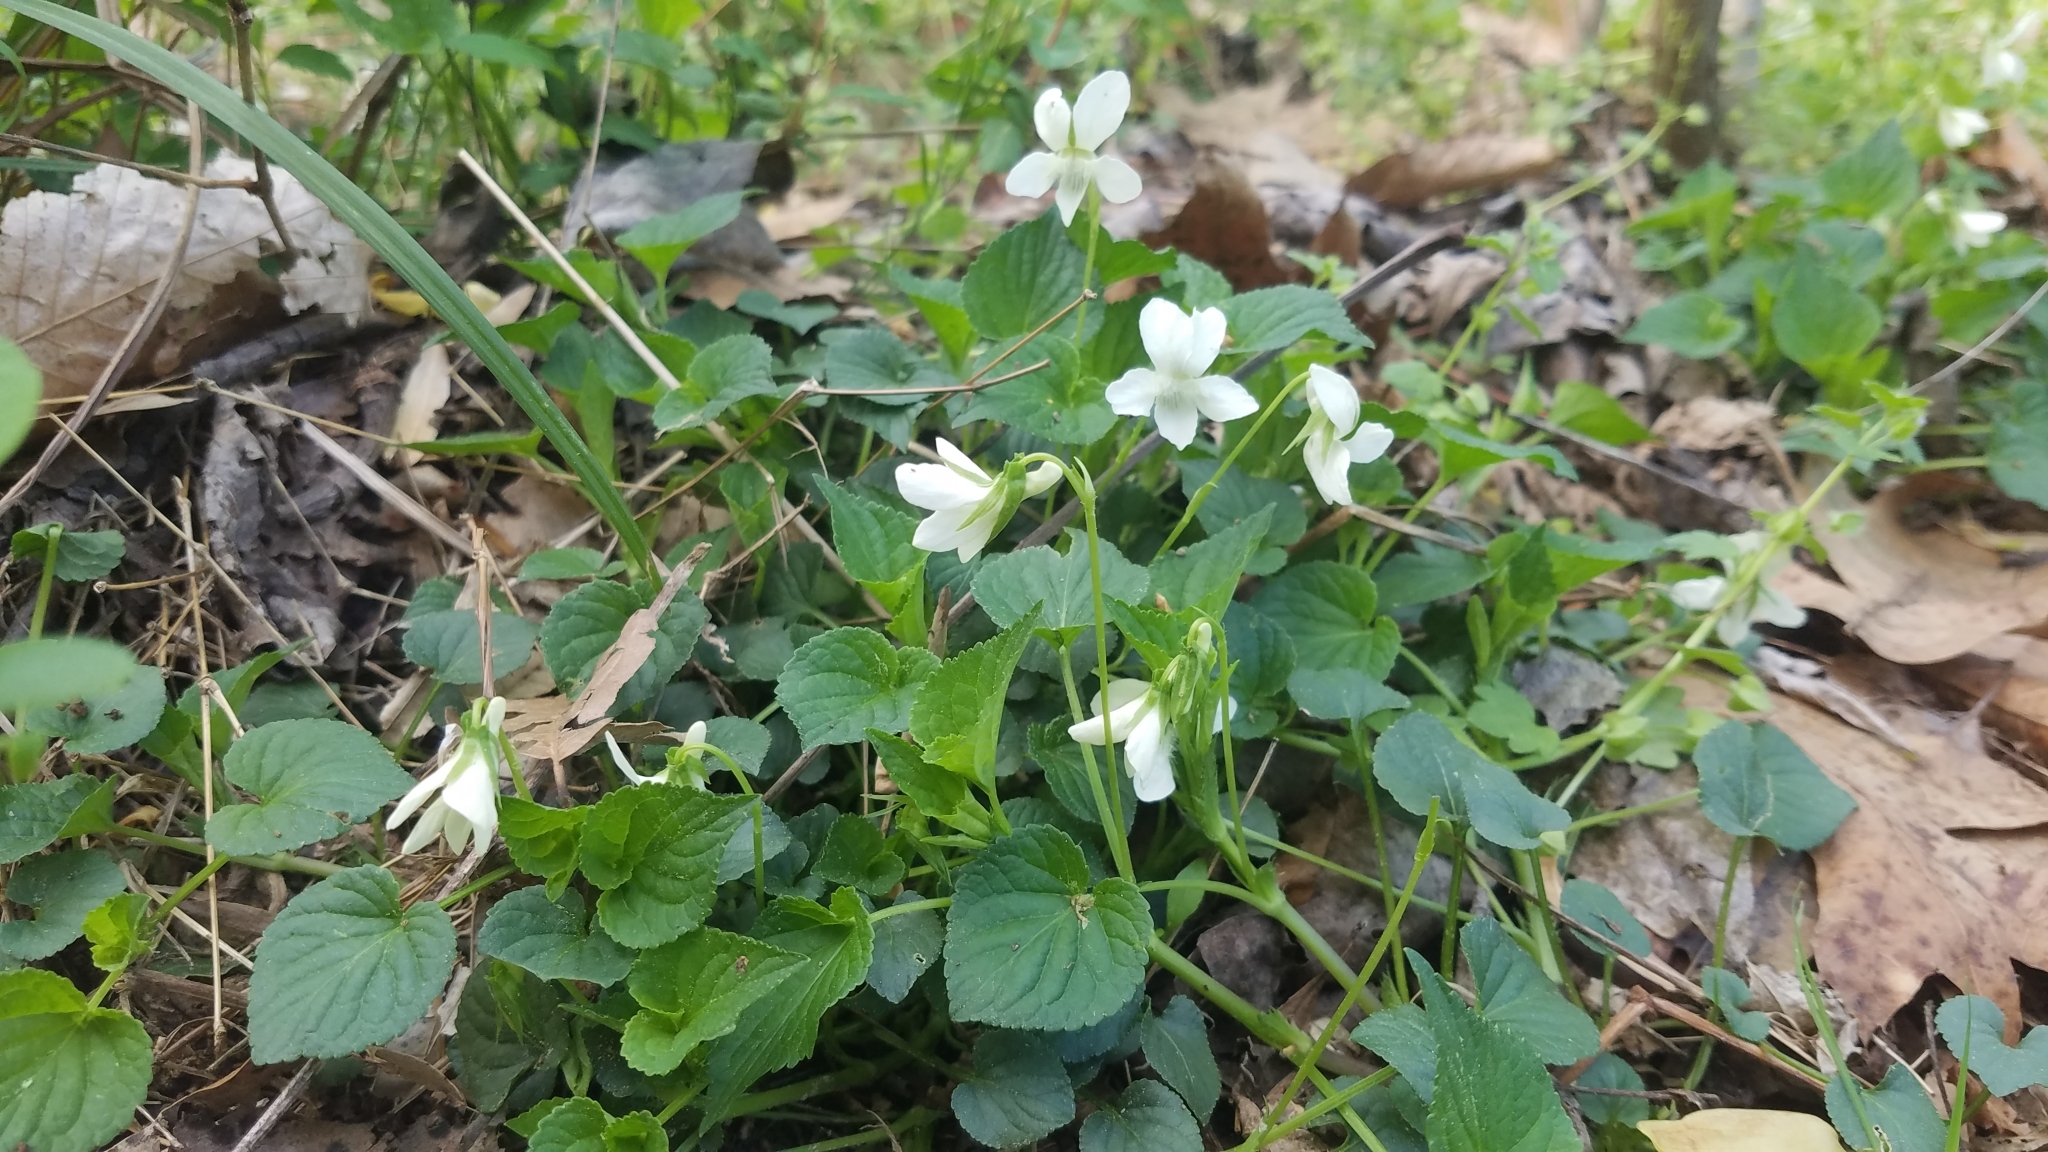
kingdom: Plantae
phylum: Tracheophyta
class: Magnoliopsida
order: Malpighiales
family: Violaceae
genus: Viola
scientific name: Viola striata
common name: Cream violet
